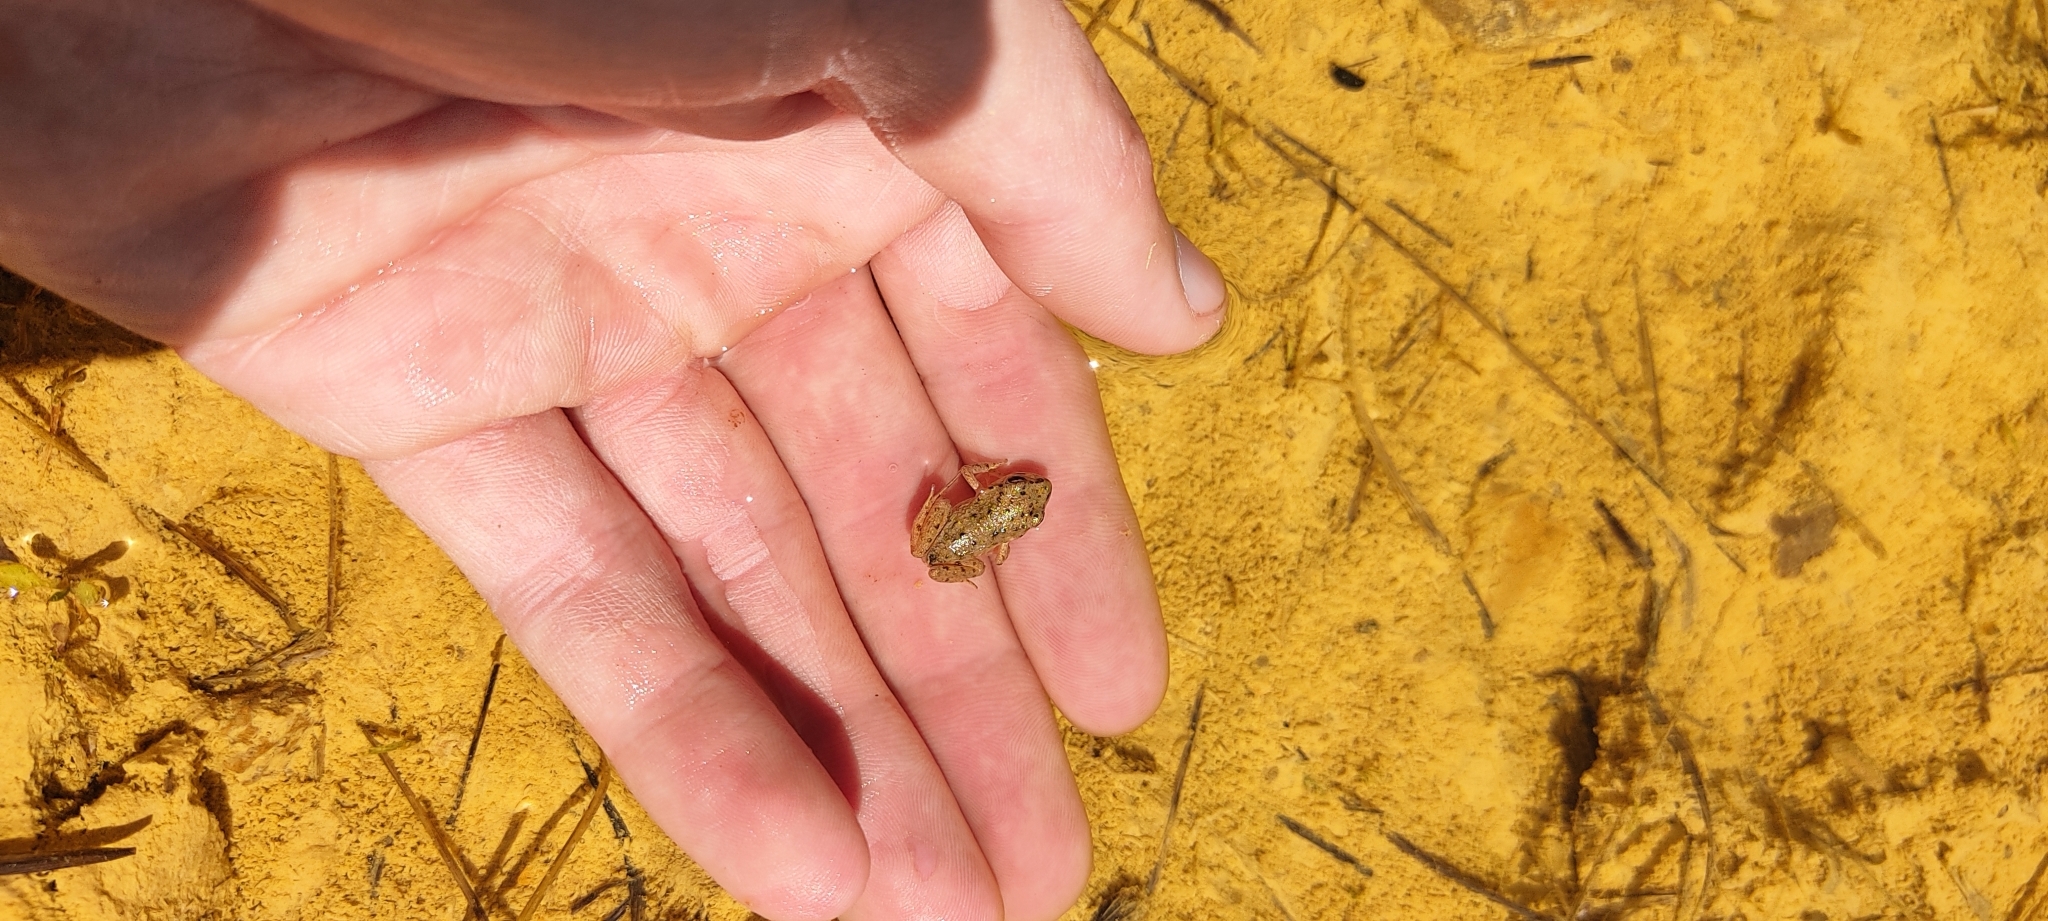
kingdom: Animalia
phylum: Chordata
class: Amphibia
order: Anura
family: Pelodytidae
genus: Pelodytes
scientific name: Pelodytes punctatus
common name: Parsley frog
